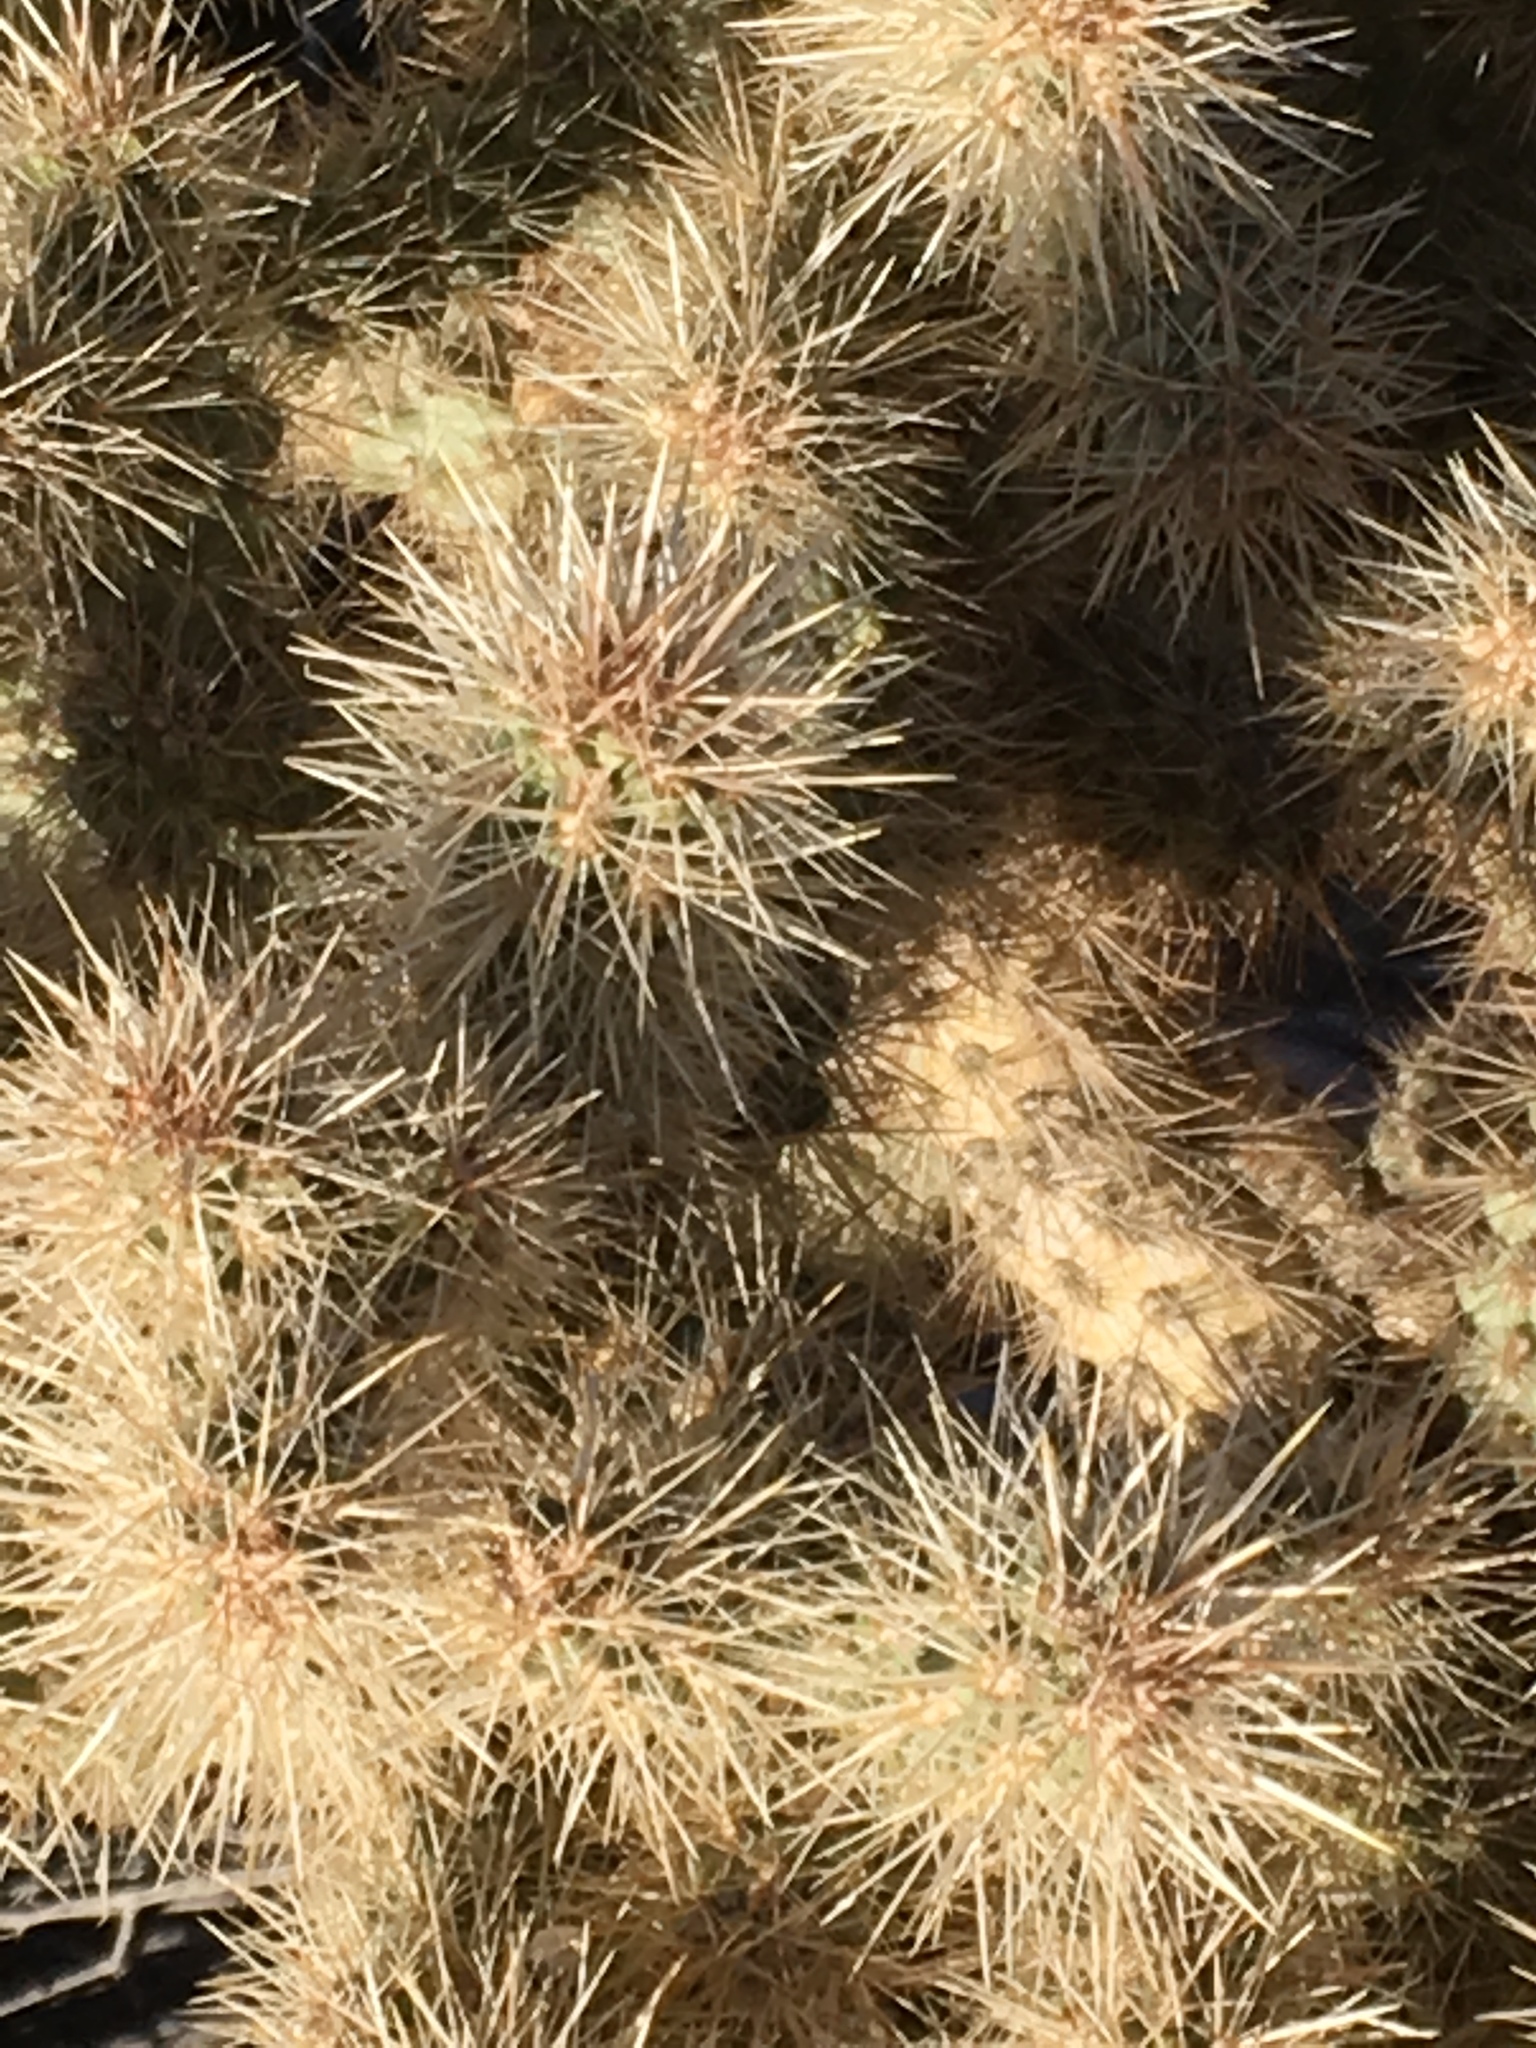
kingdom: Plantae
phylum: Tracheophyta
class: Magnoliopsida
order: Caryophyllales
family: Cactaceae
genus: Cylindropuntia
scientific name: Cylindropuntia echinocarpa
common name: Ground cholla
